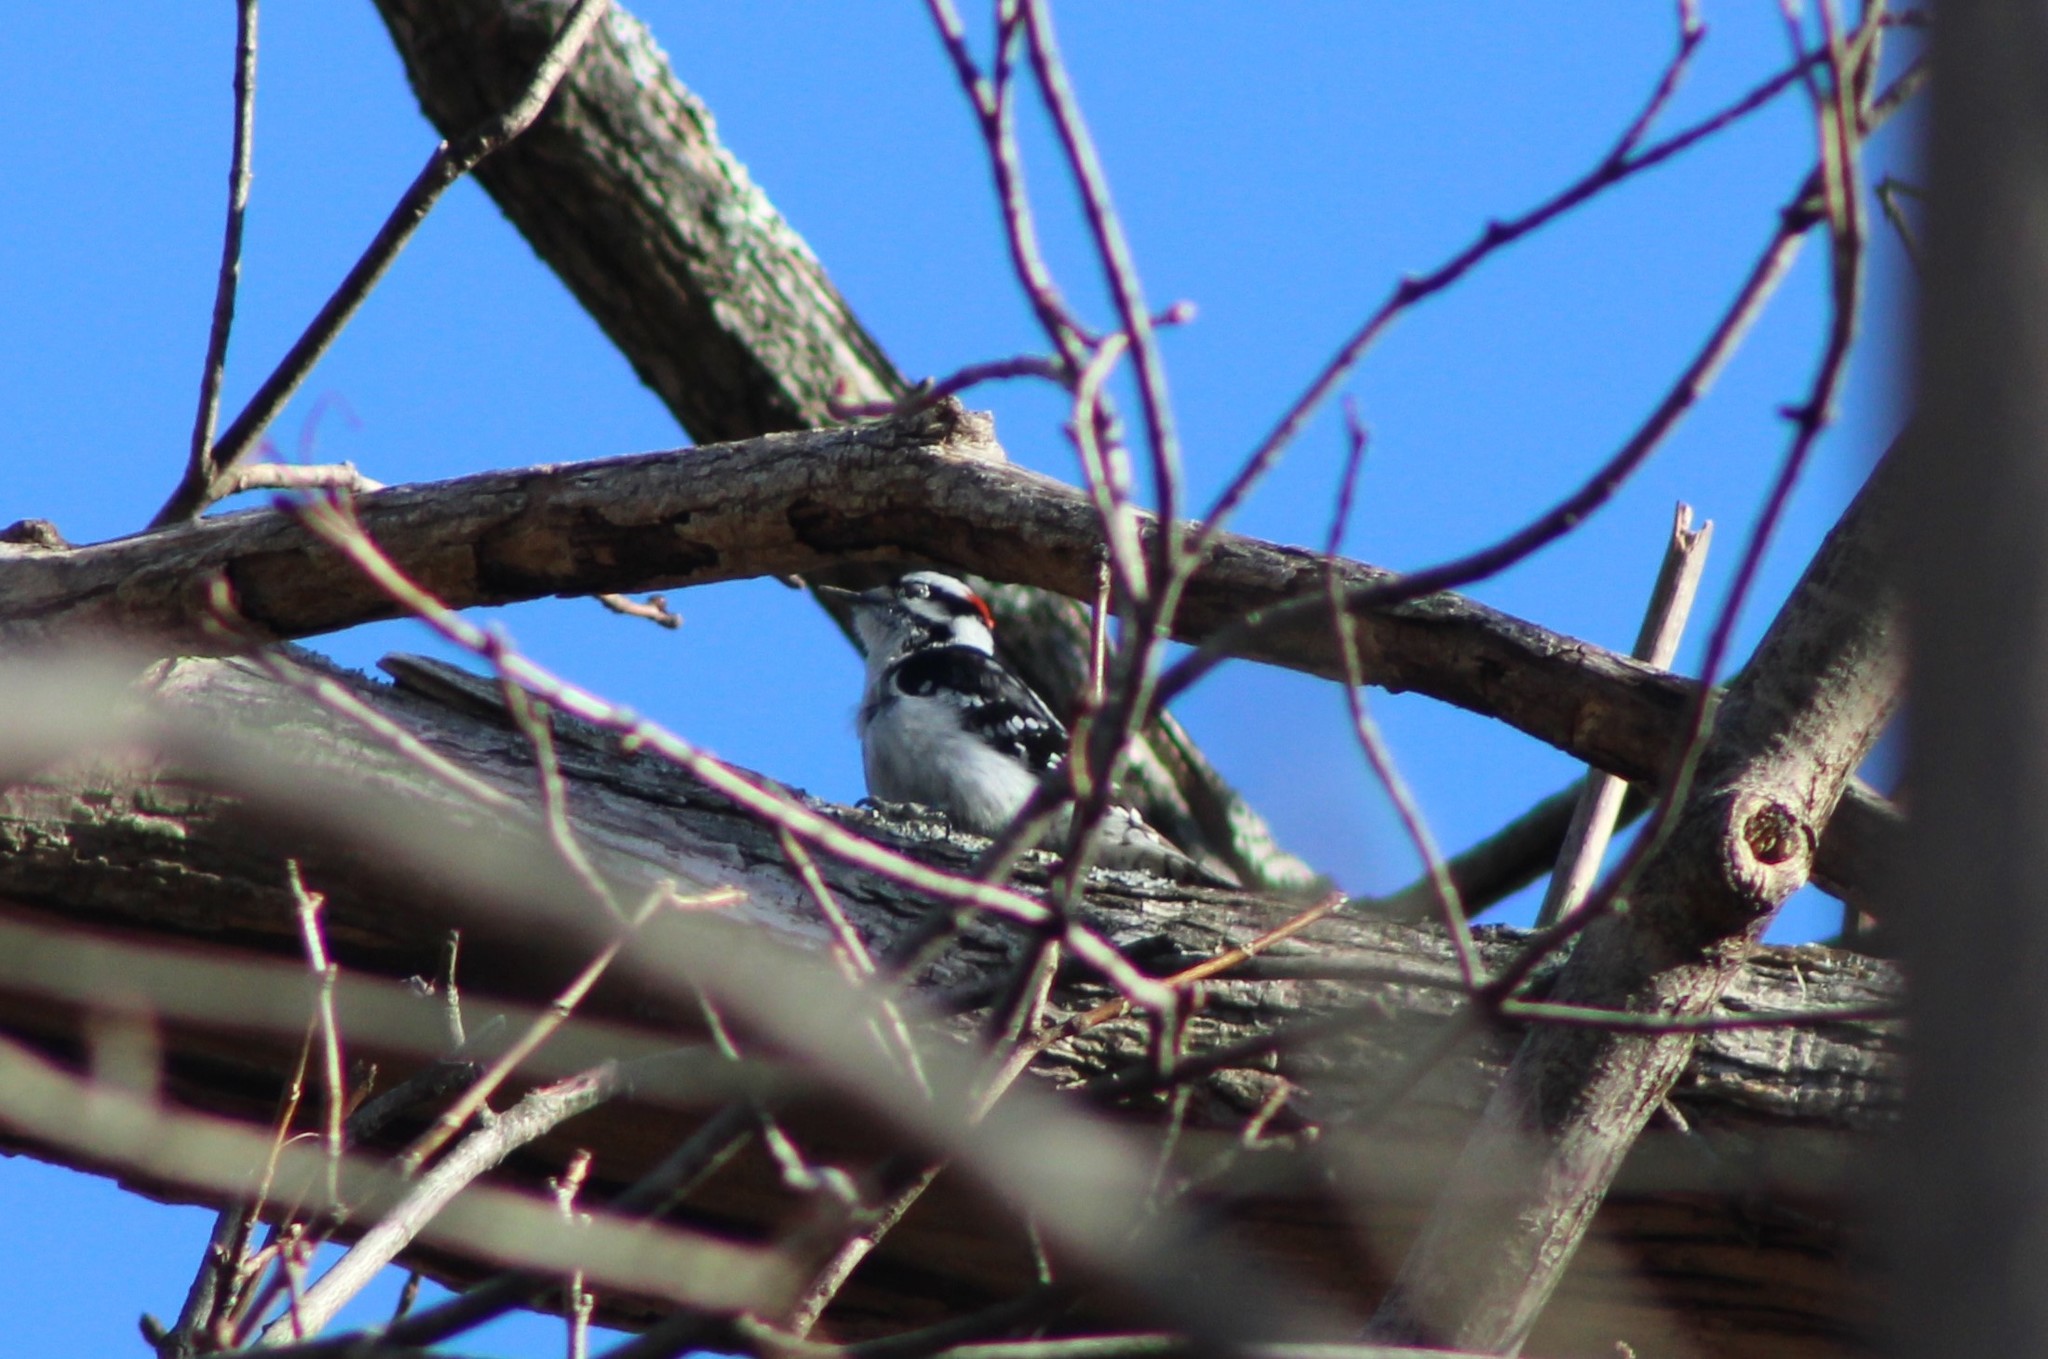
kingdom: Animalia
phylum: Chordata
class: Aves
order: Piciformes
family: Picidae
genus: Dryobates
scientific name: Dryobates pubescens
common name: Downy woodpecker
